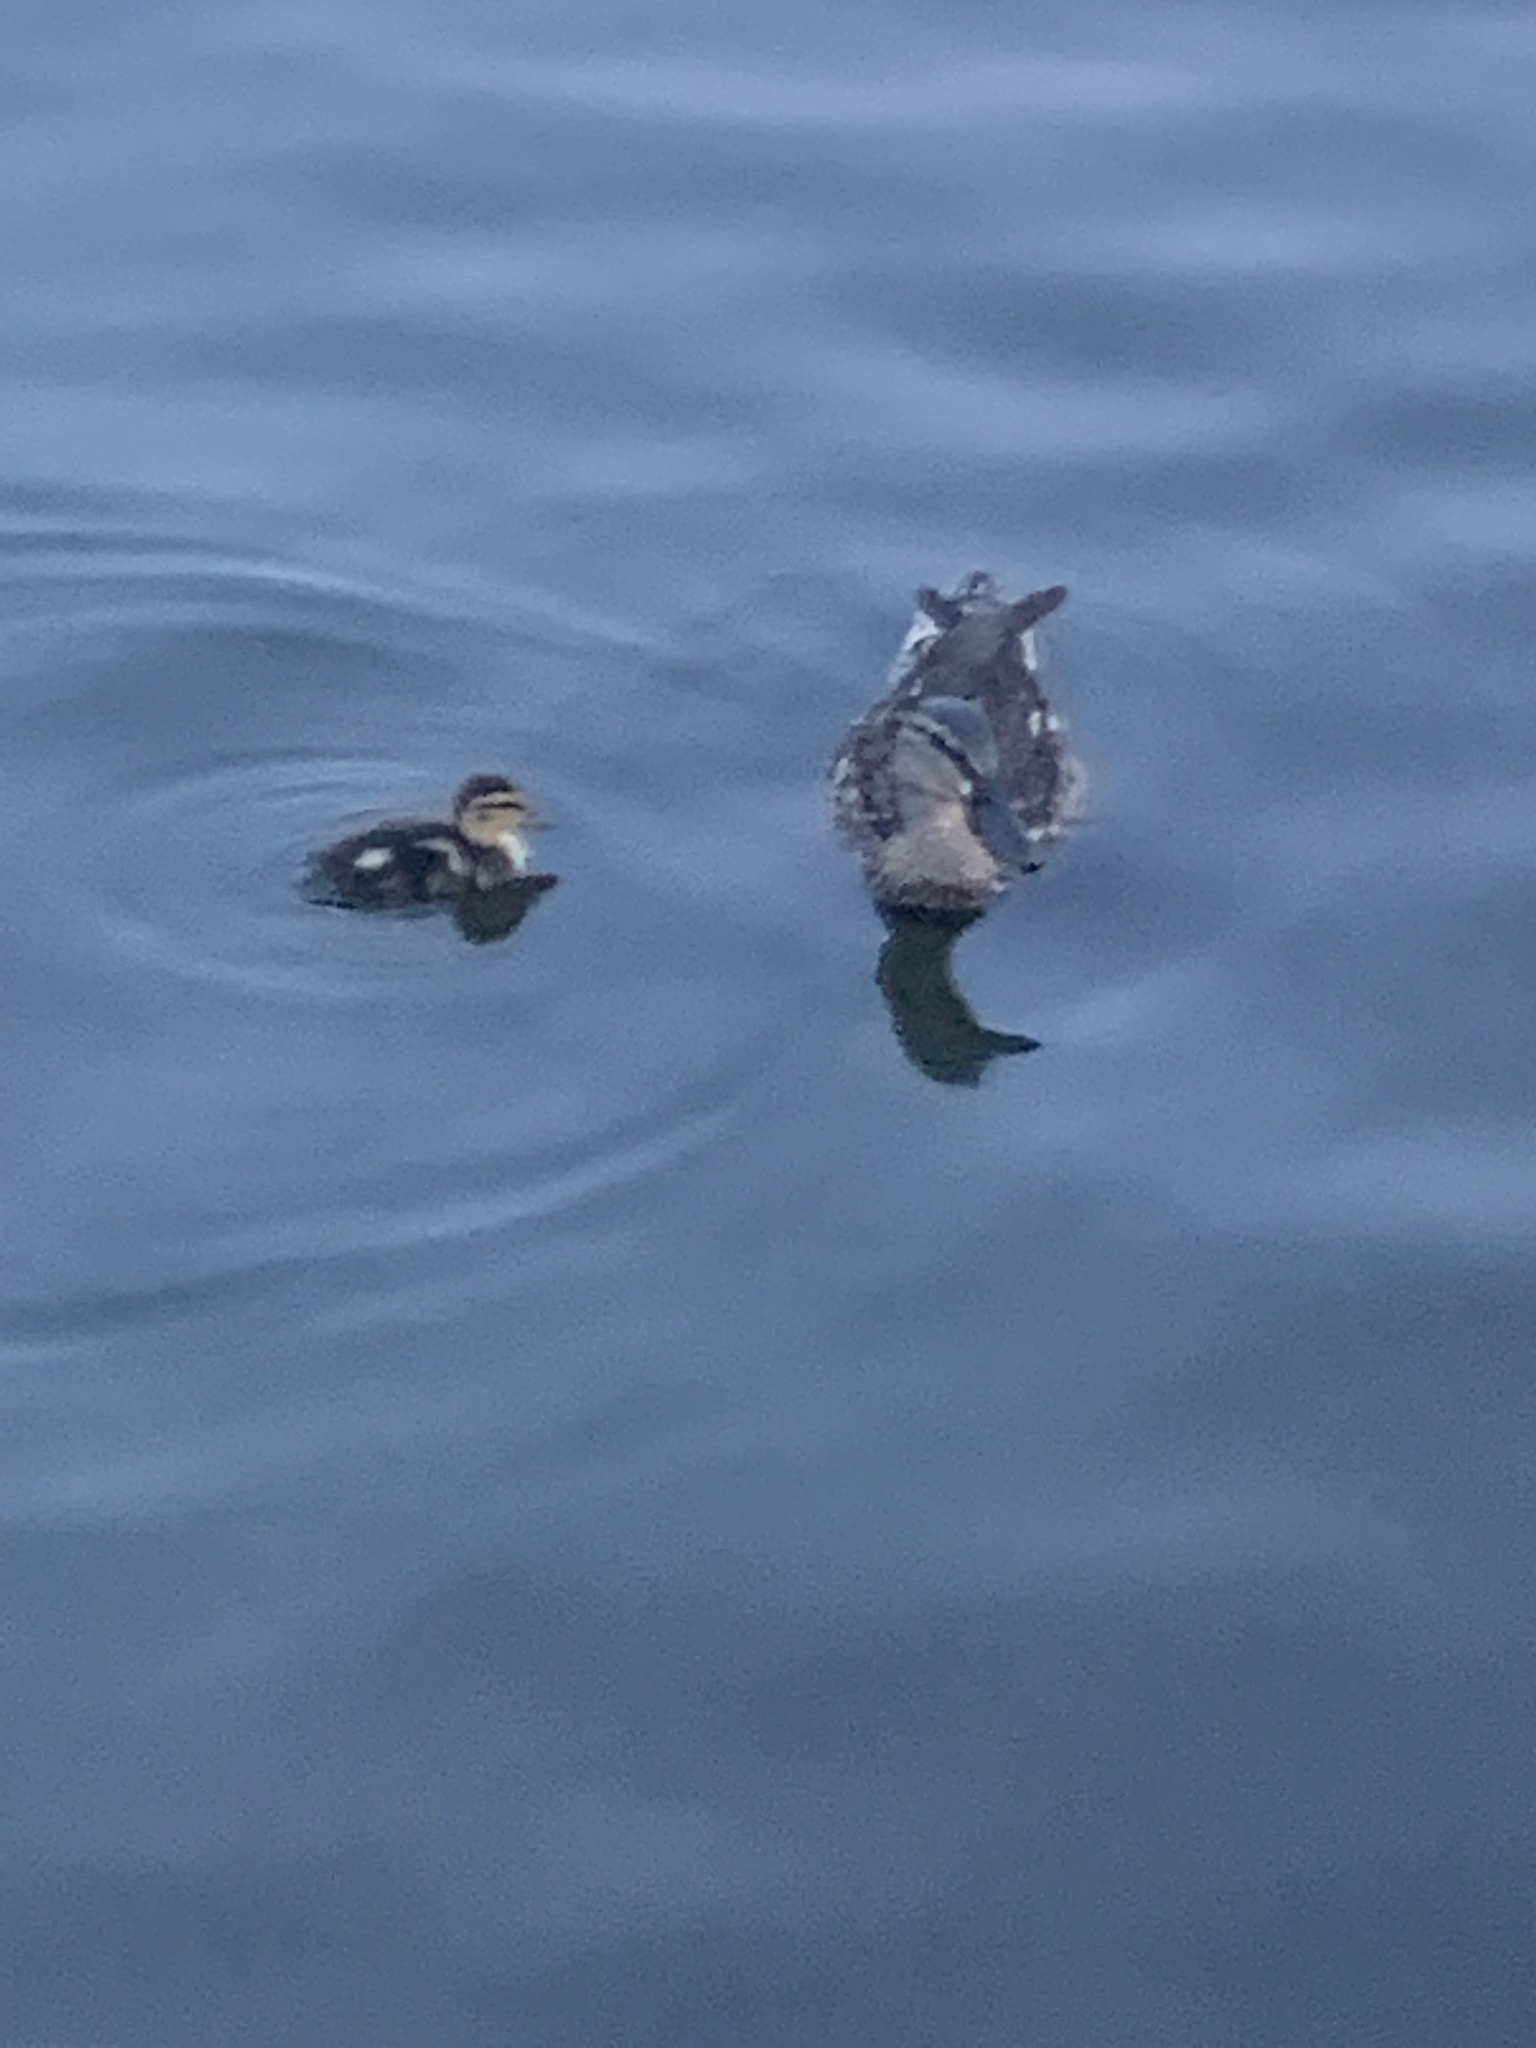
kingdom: Animalia
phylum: Chordata
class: Aves
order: Anseriformes
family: Anatidae
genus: Anas
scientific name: Anas platyrhynchos
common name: Mallard
